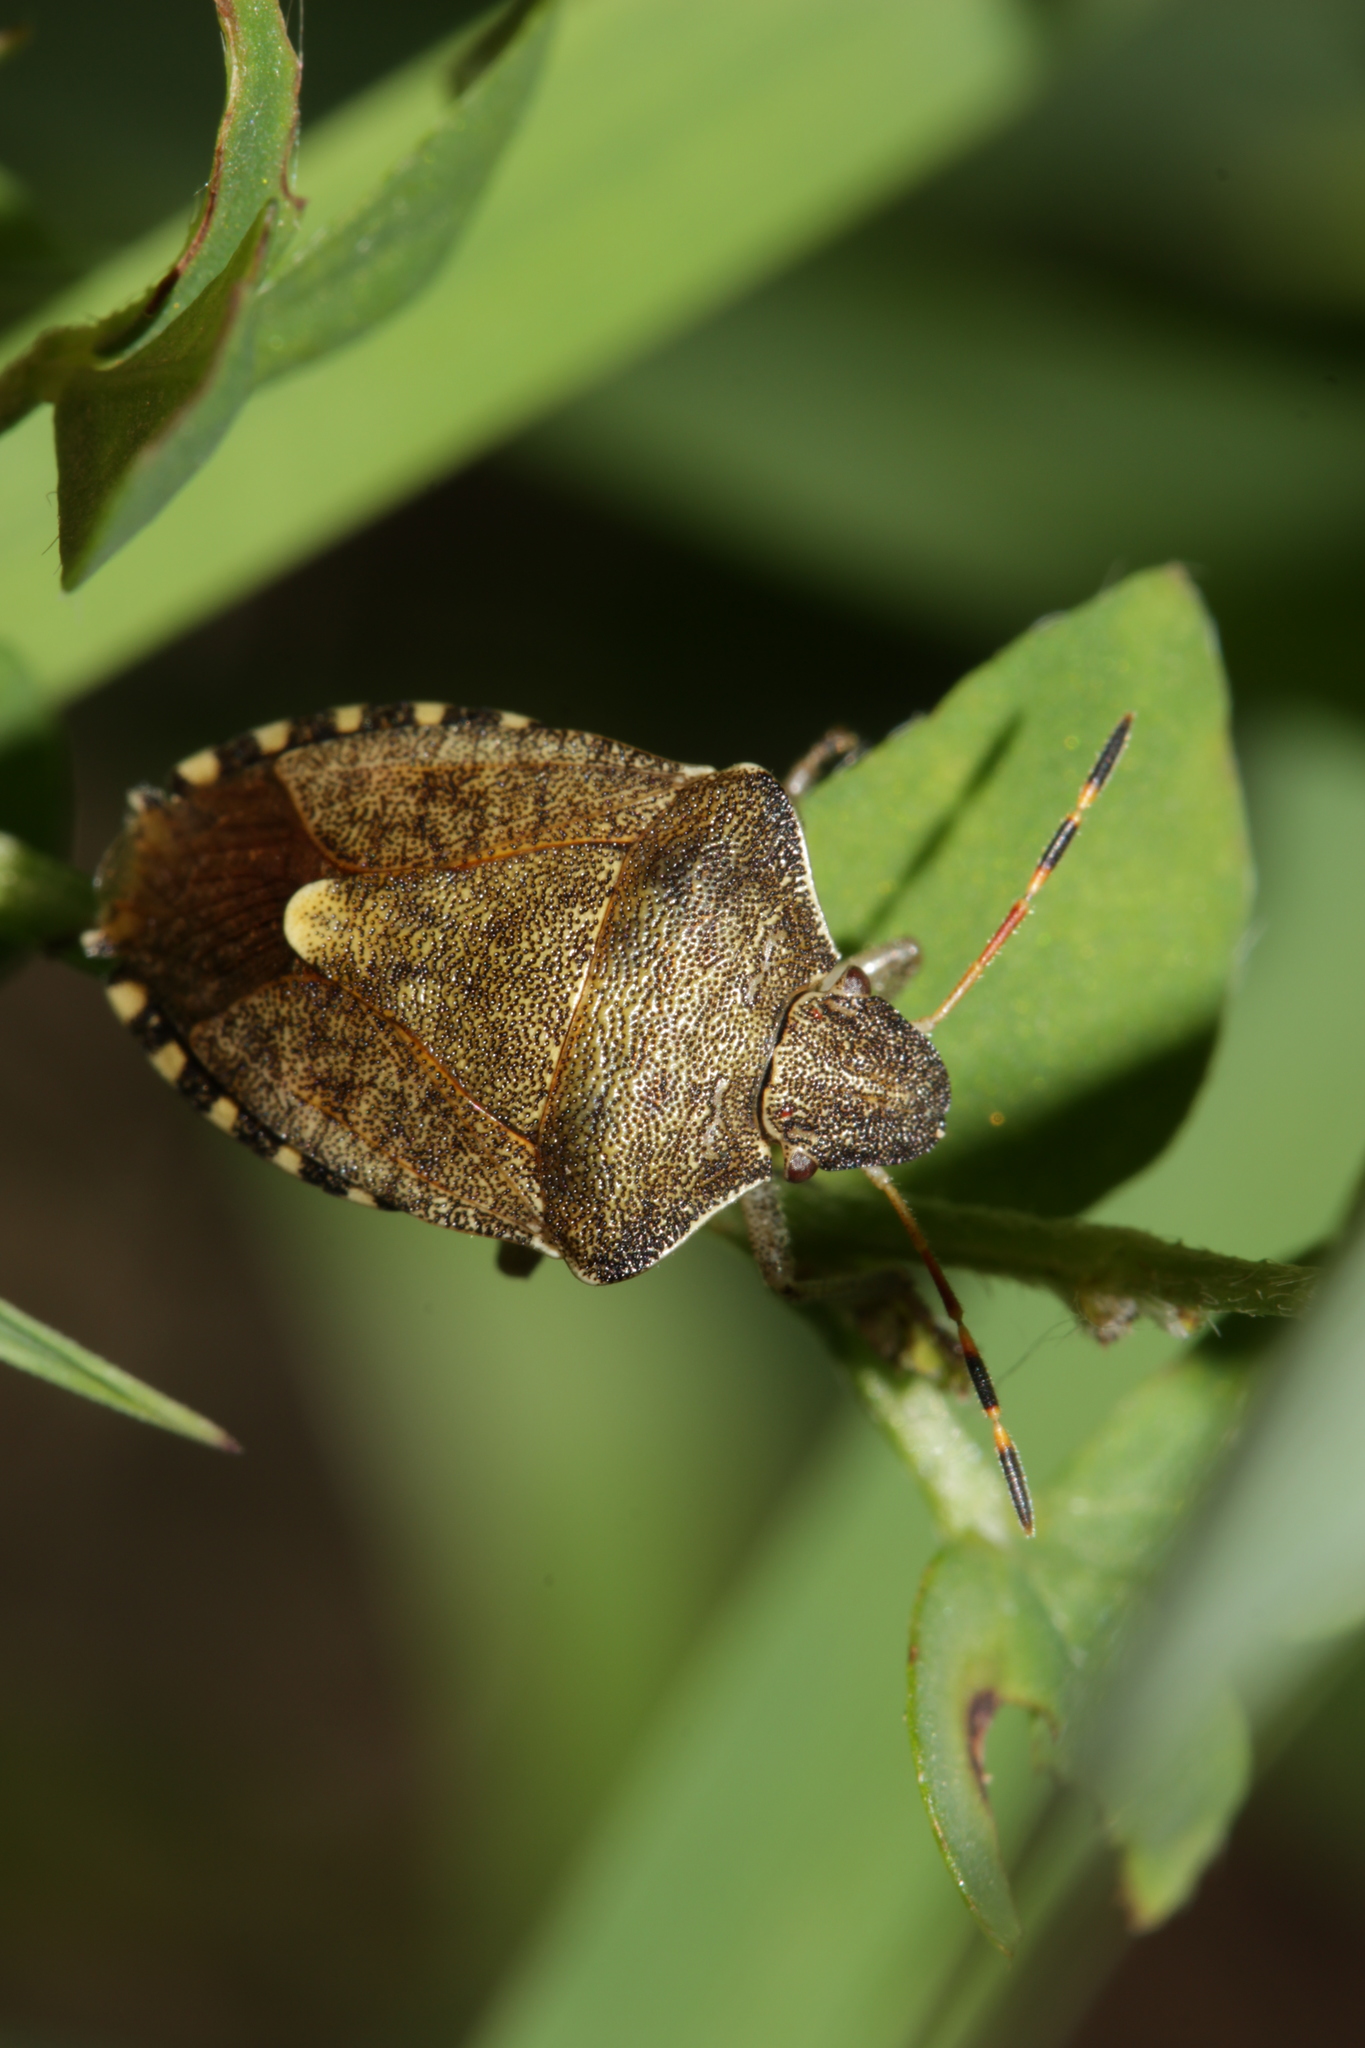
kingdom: Animalia
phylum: Arthropoda
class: Insecta
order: Hemiptera
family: Pentatomidae
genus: Holcostethus
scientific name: Holcostethus strictus
